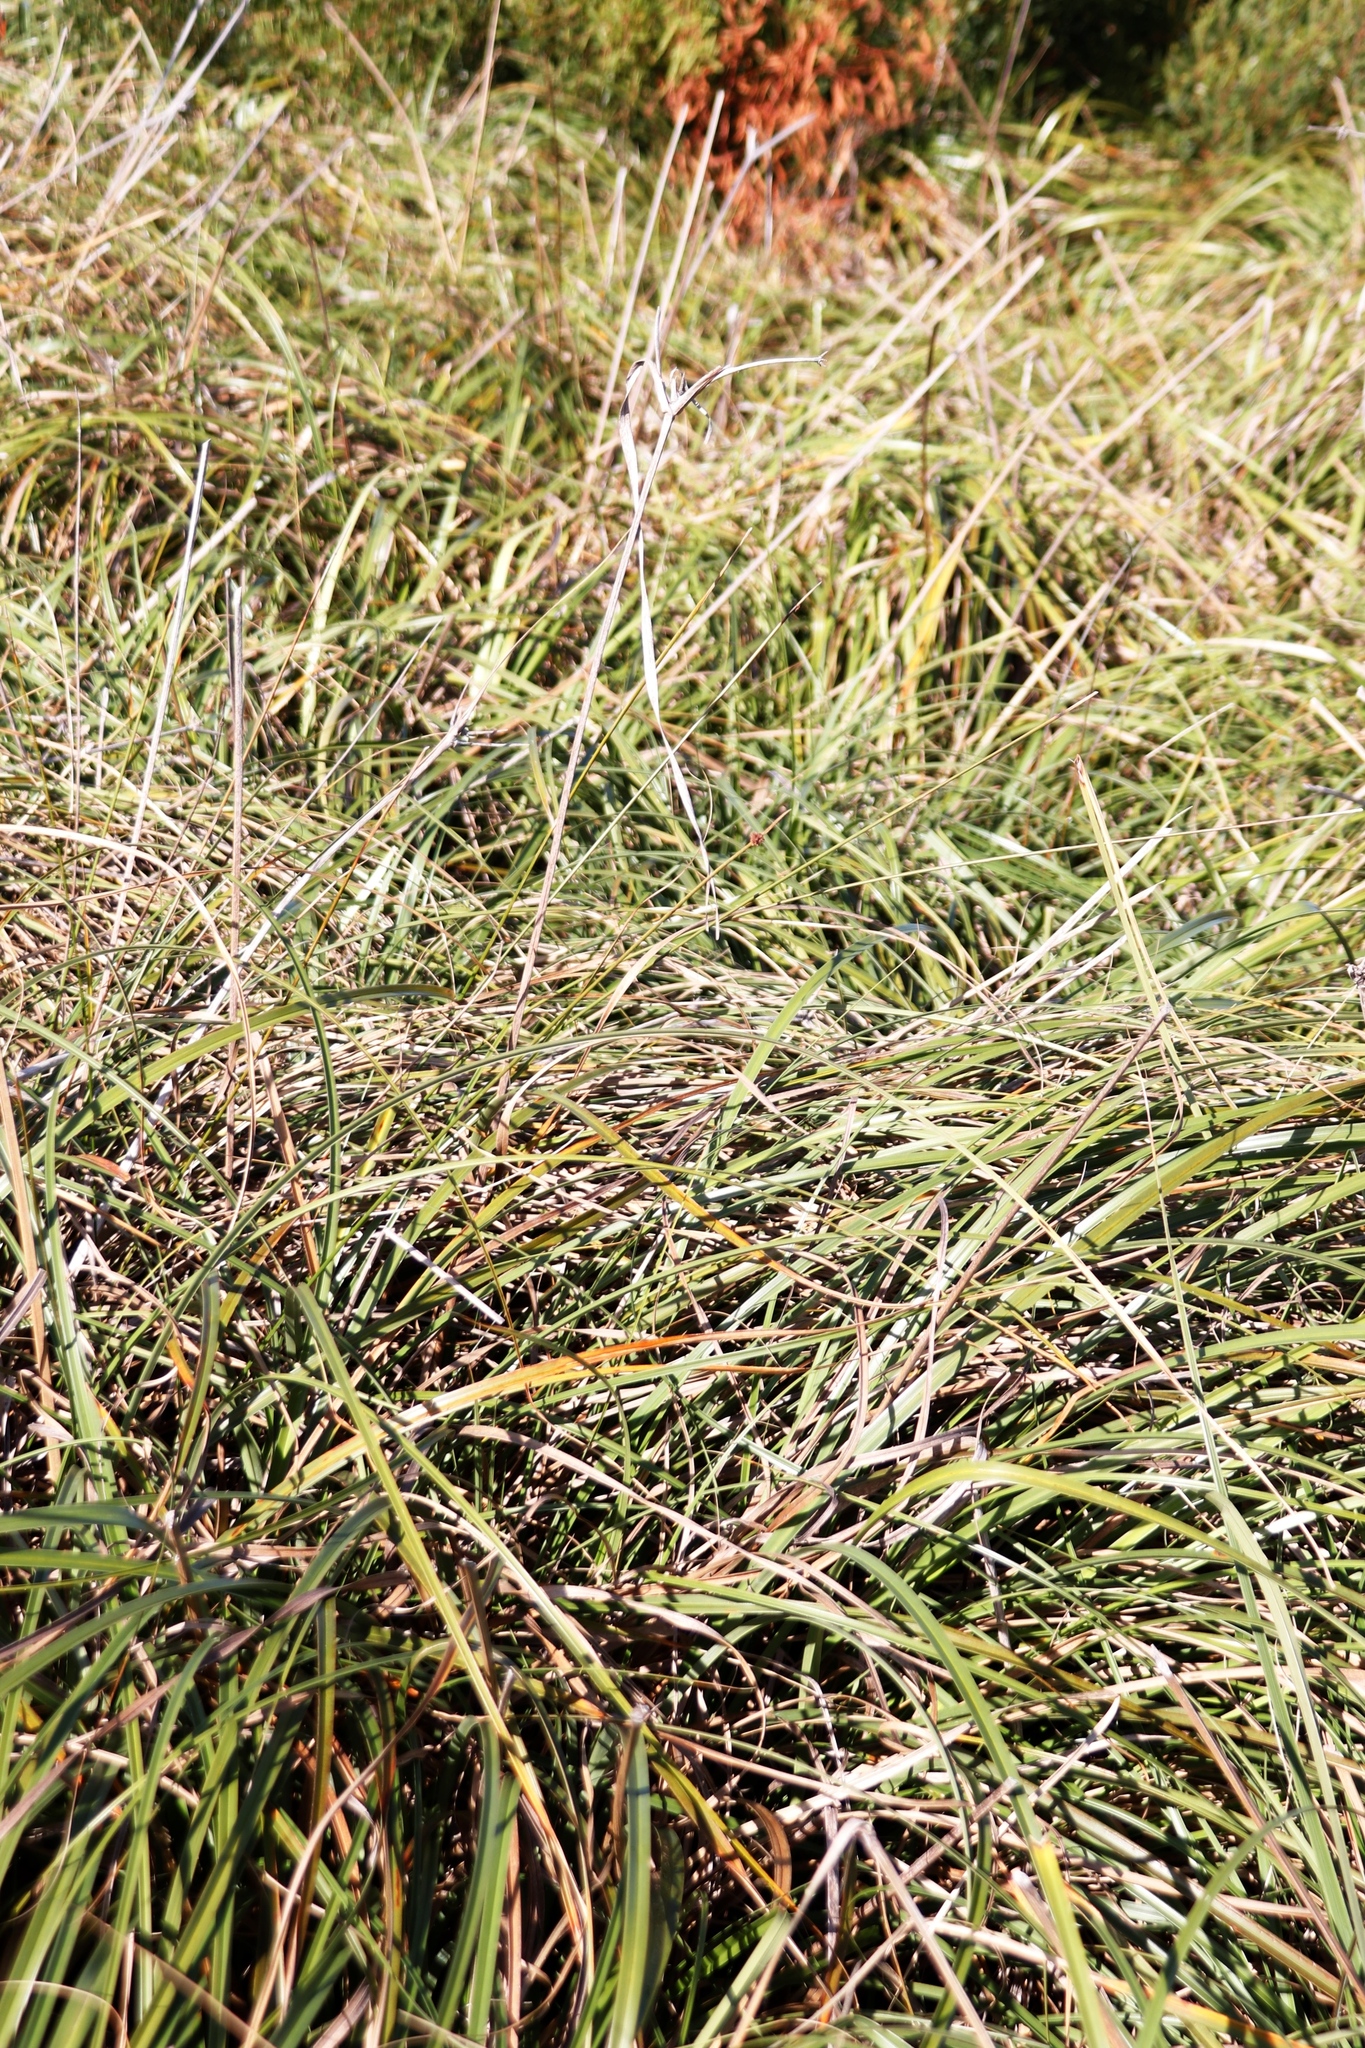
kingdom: Plantae
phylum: Tracheophyta
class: Liliopsida
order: Poales
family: Cyperaceae
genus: Cyperus
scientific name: Cyperus thunbergii
